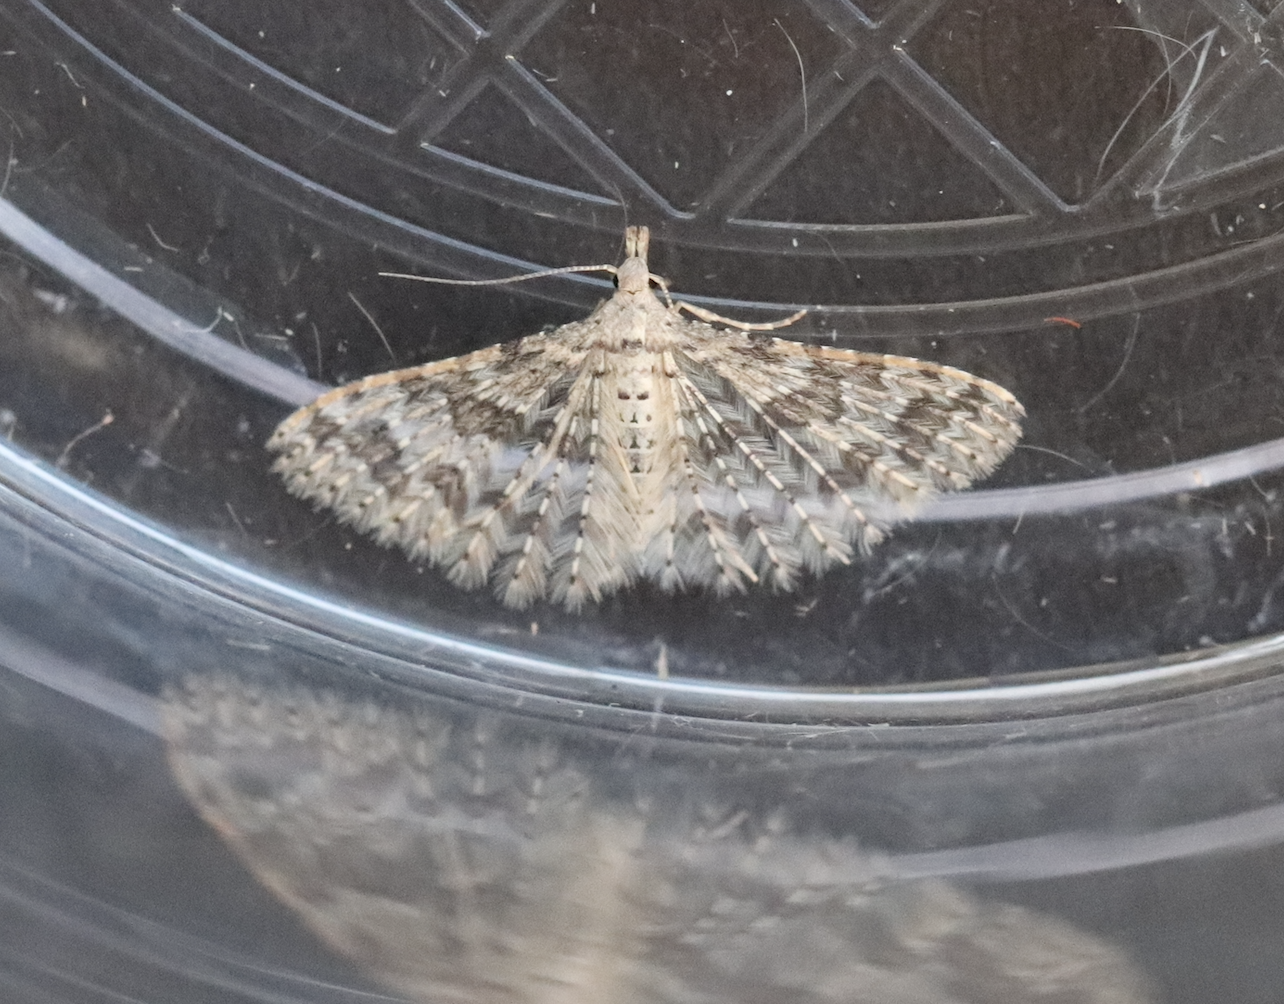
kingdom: Animalia
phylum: Arthropoda
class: Insecta
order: Lepidoptera
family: Alucitidae
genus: Alucita
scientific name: Alucita hexadactyla
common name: Twenty-plume moth
